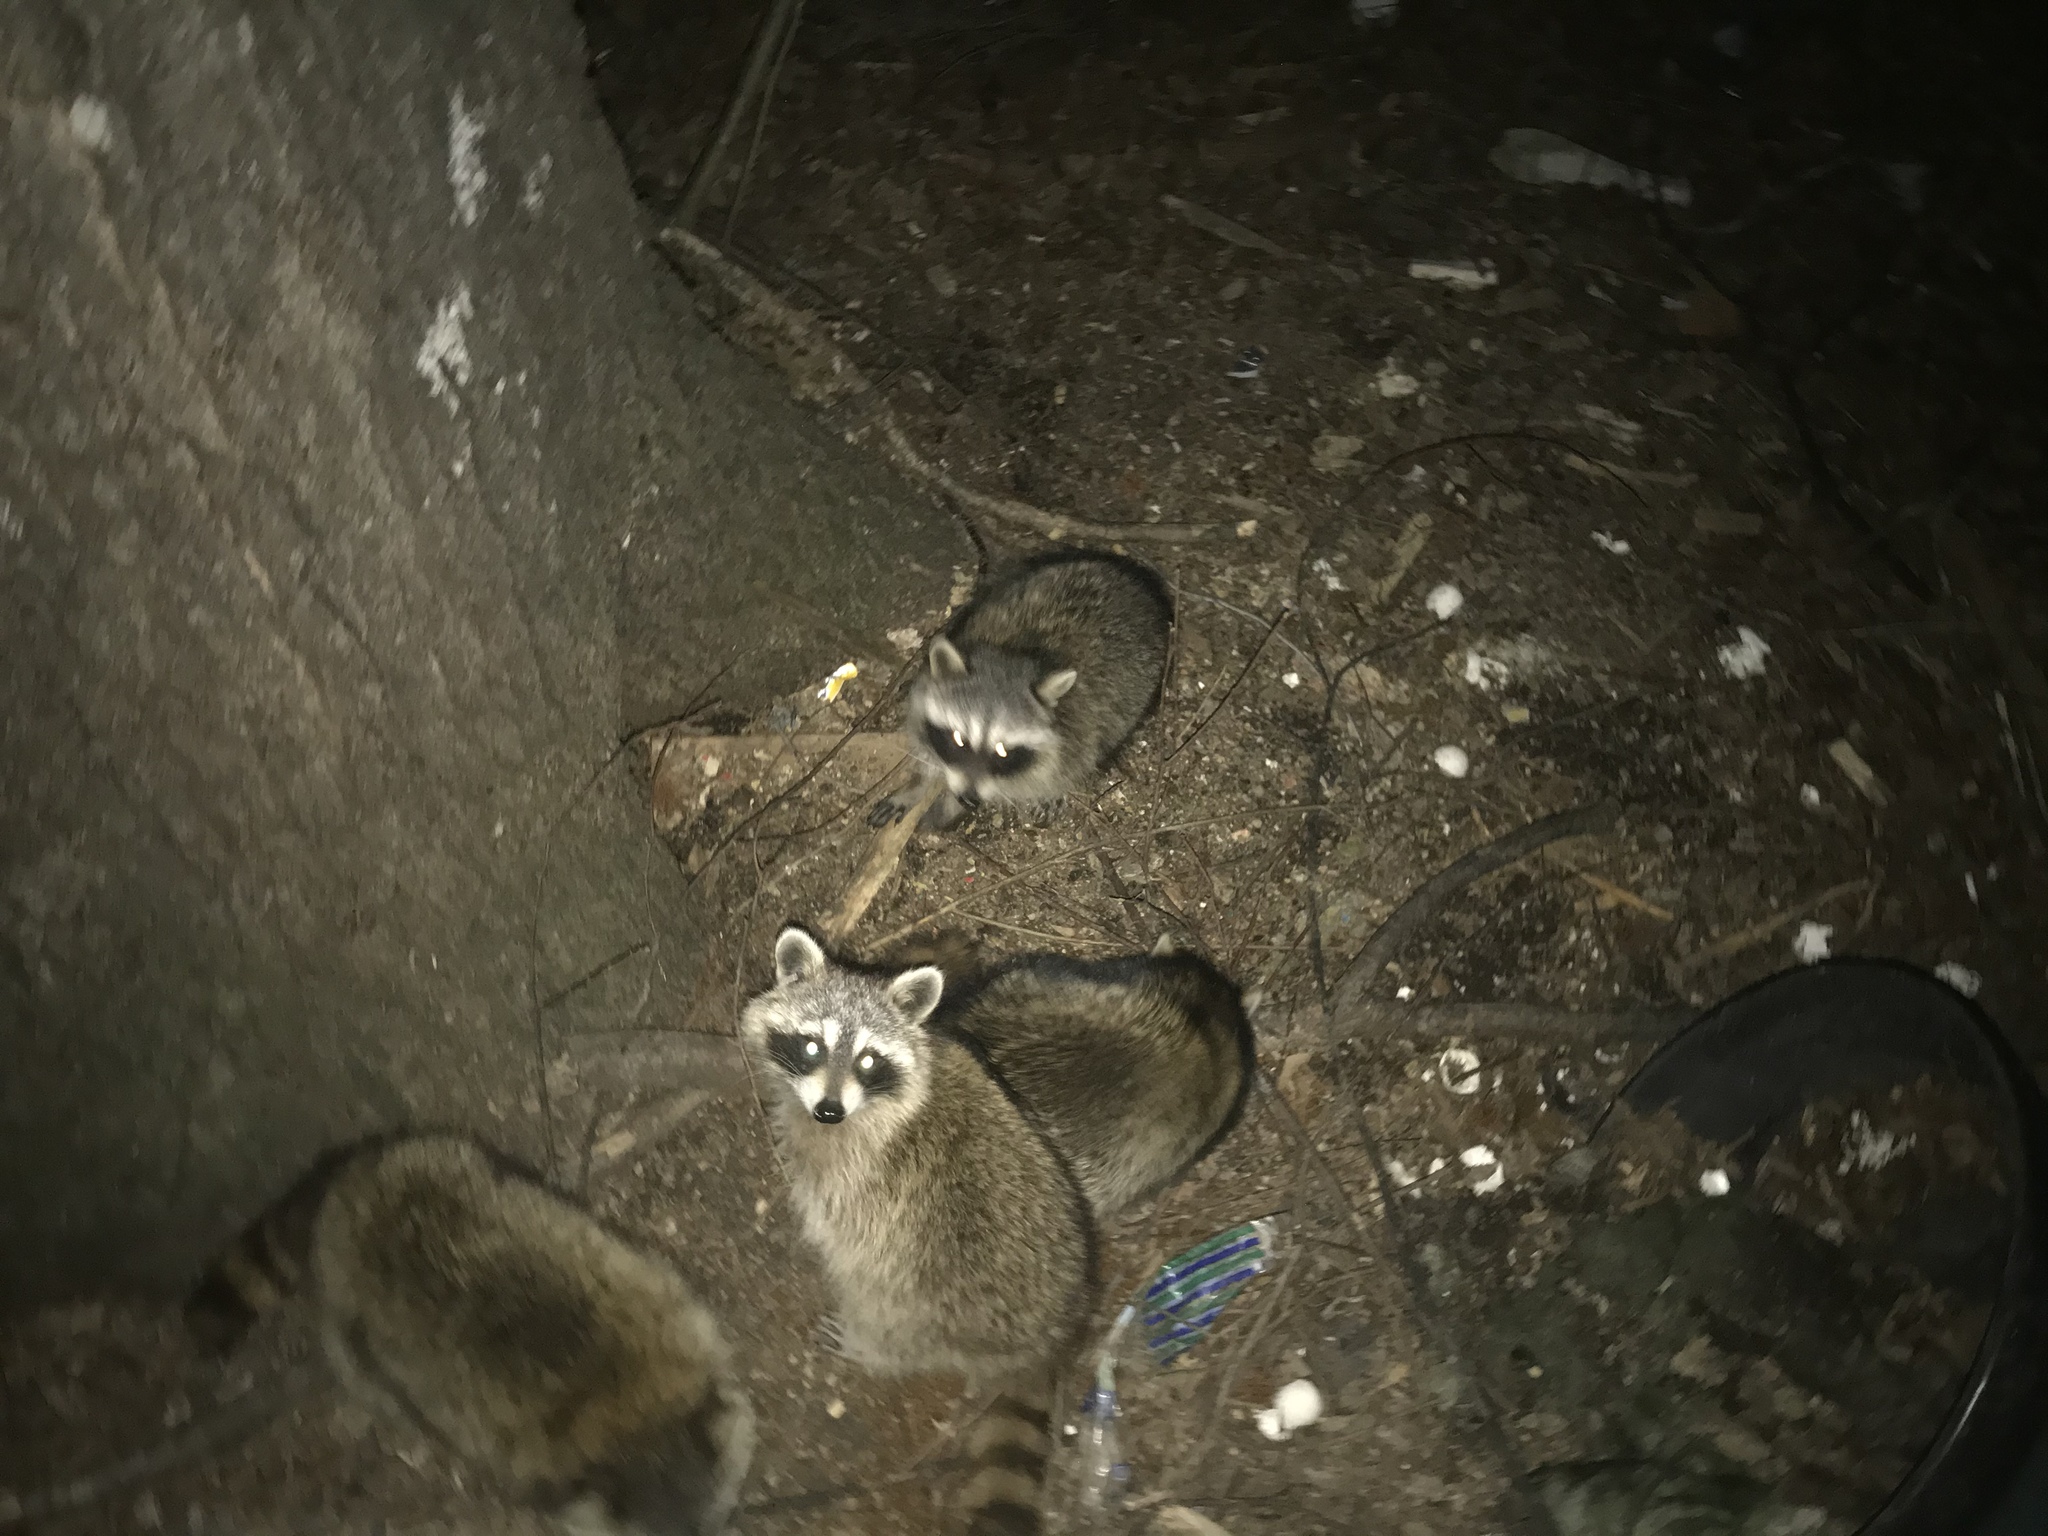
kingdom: Animalia
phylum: Chordata
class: Mammalia
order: Carnivora
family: Procyonidae
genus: Procyon
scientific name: Procyon lotor
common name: Raccoon
